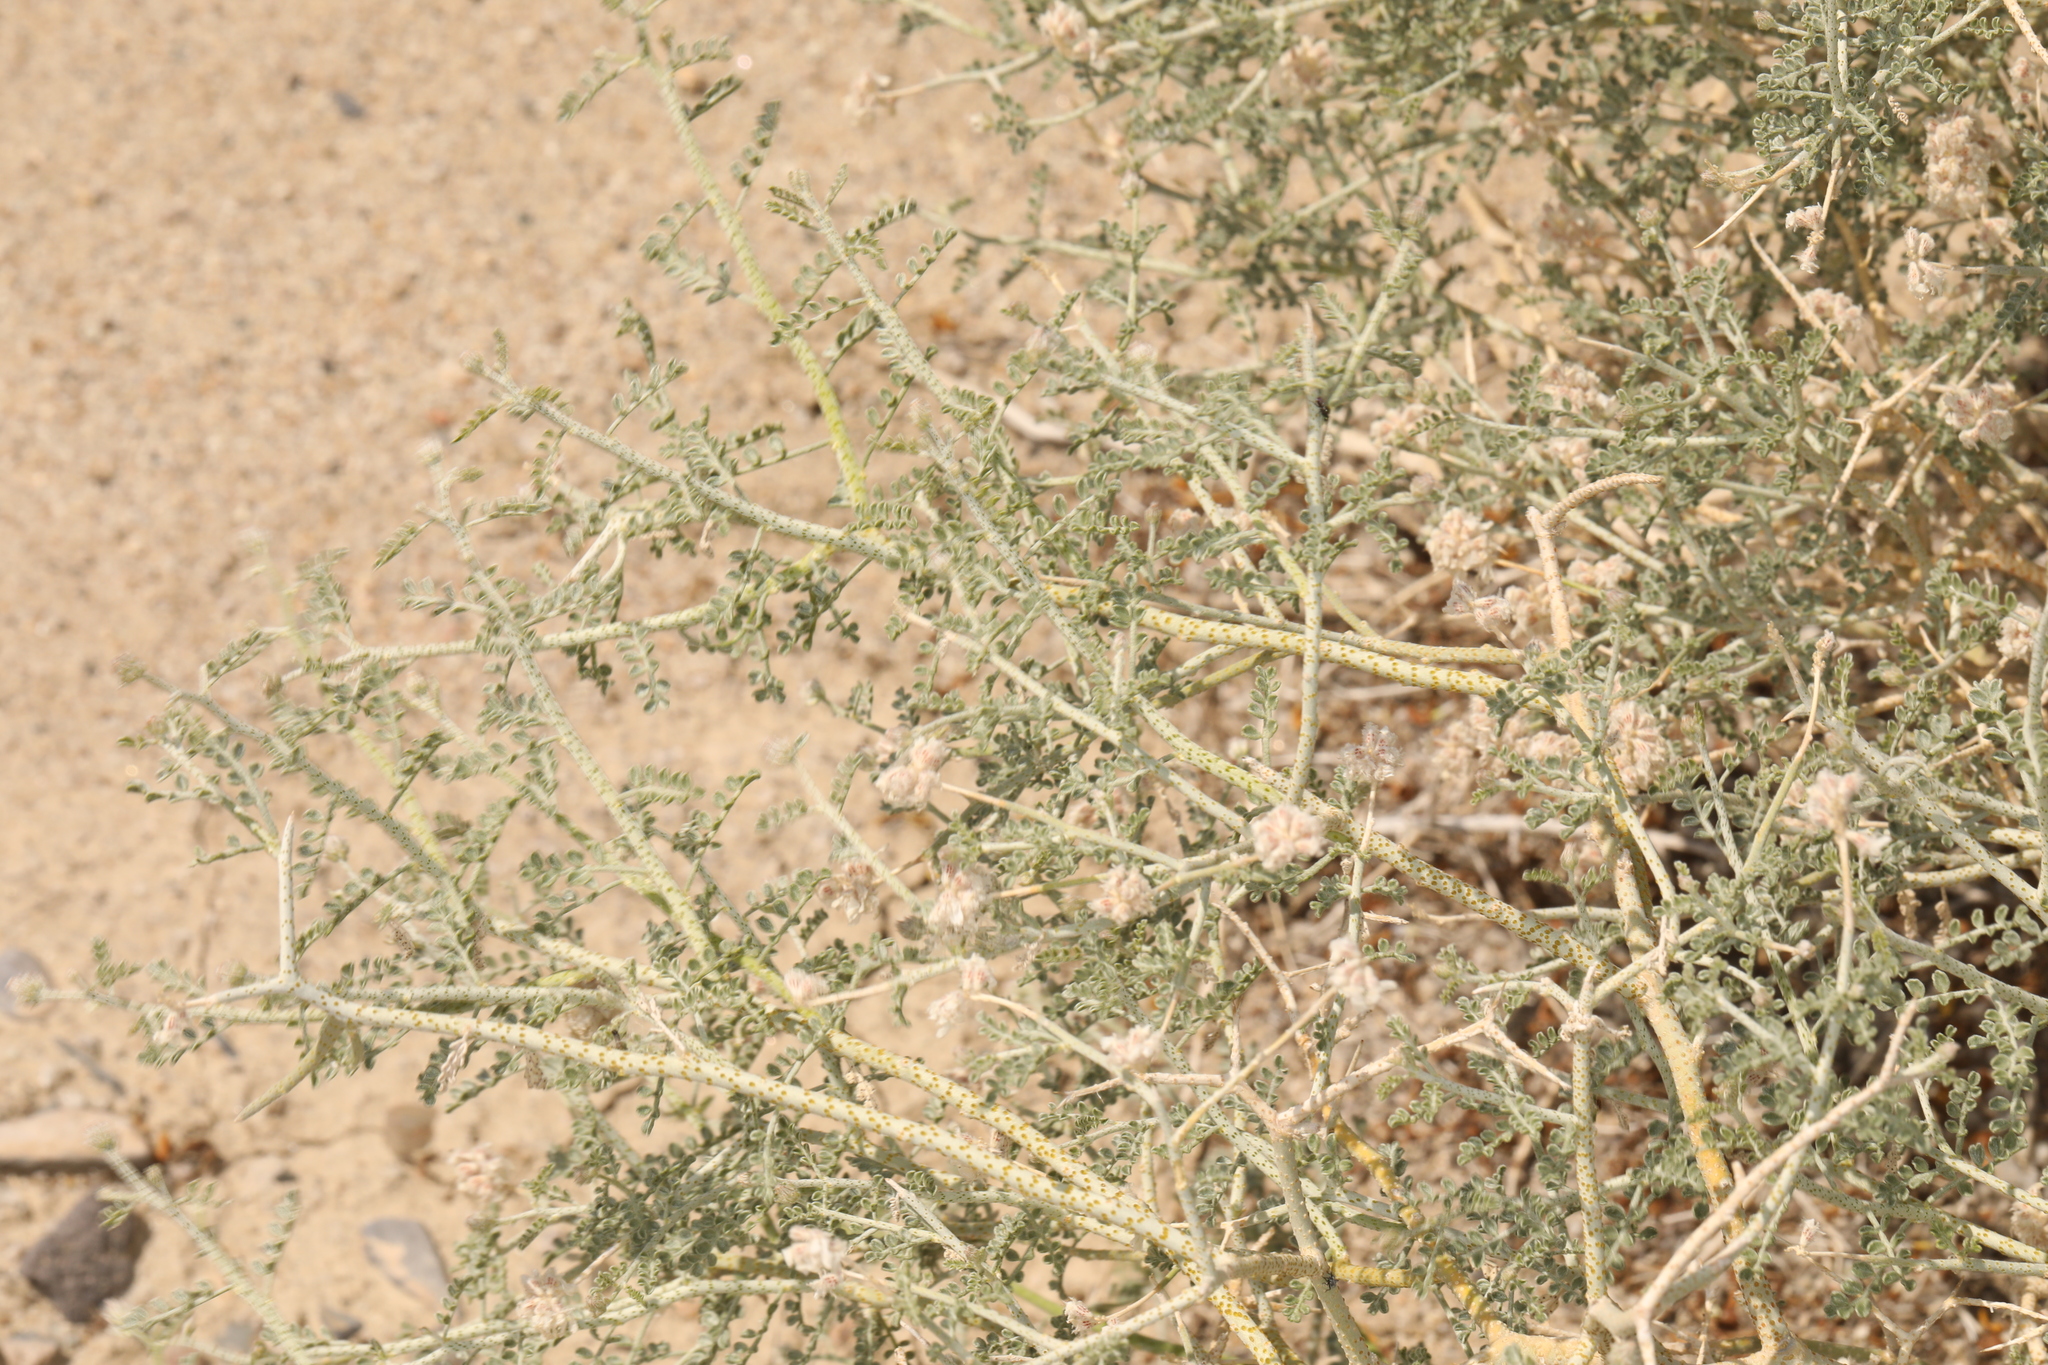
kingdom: Plantae
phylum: Tracheophyta
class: Magnoliopsida
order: Fabales
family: Fabaceae
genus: Psorothamnus
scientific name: Psorothamnus polydenius
